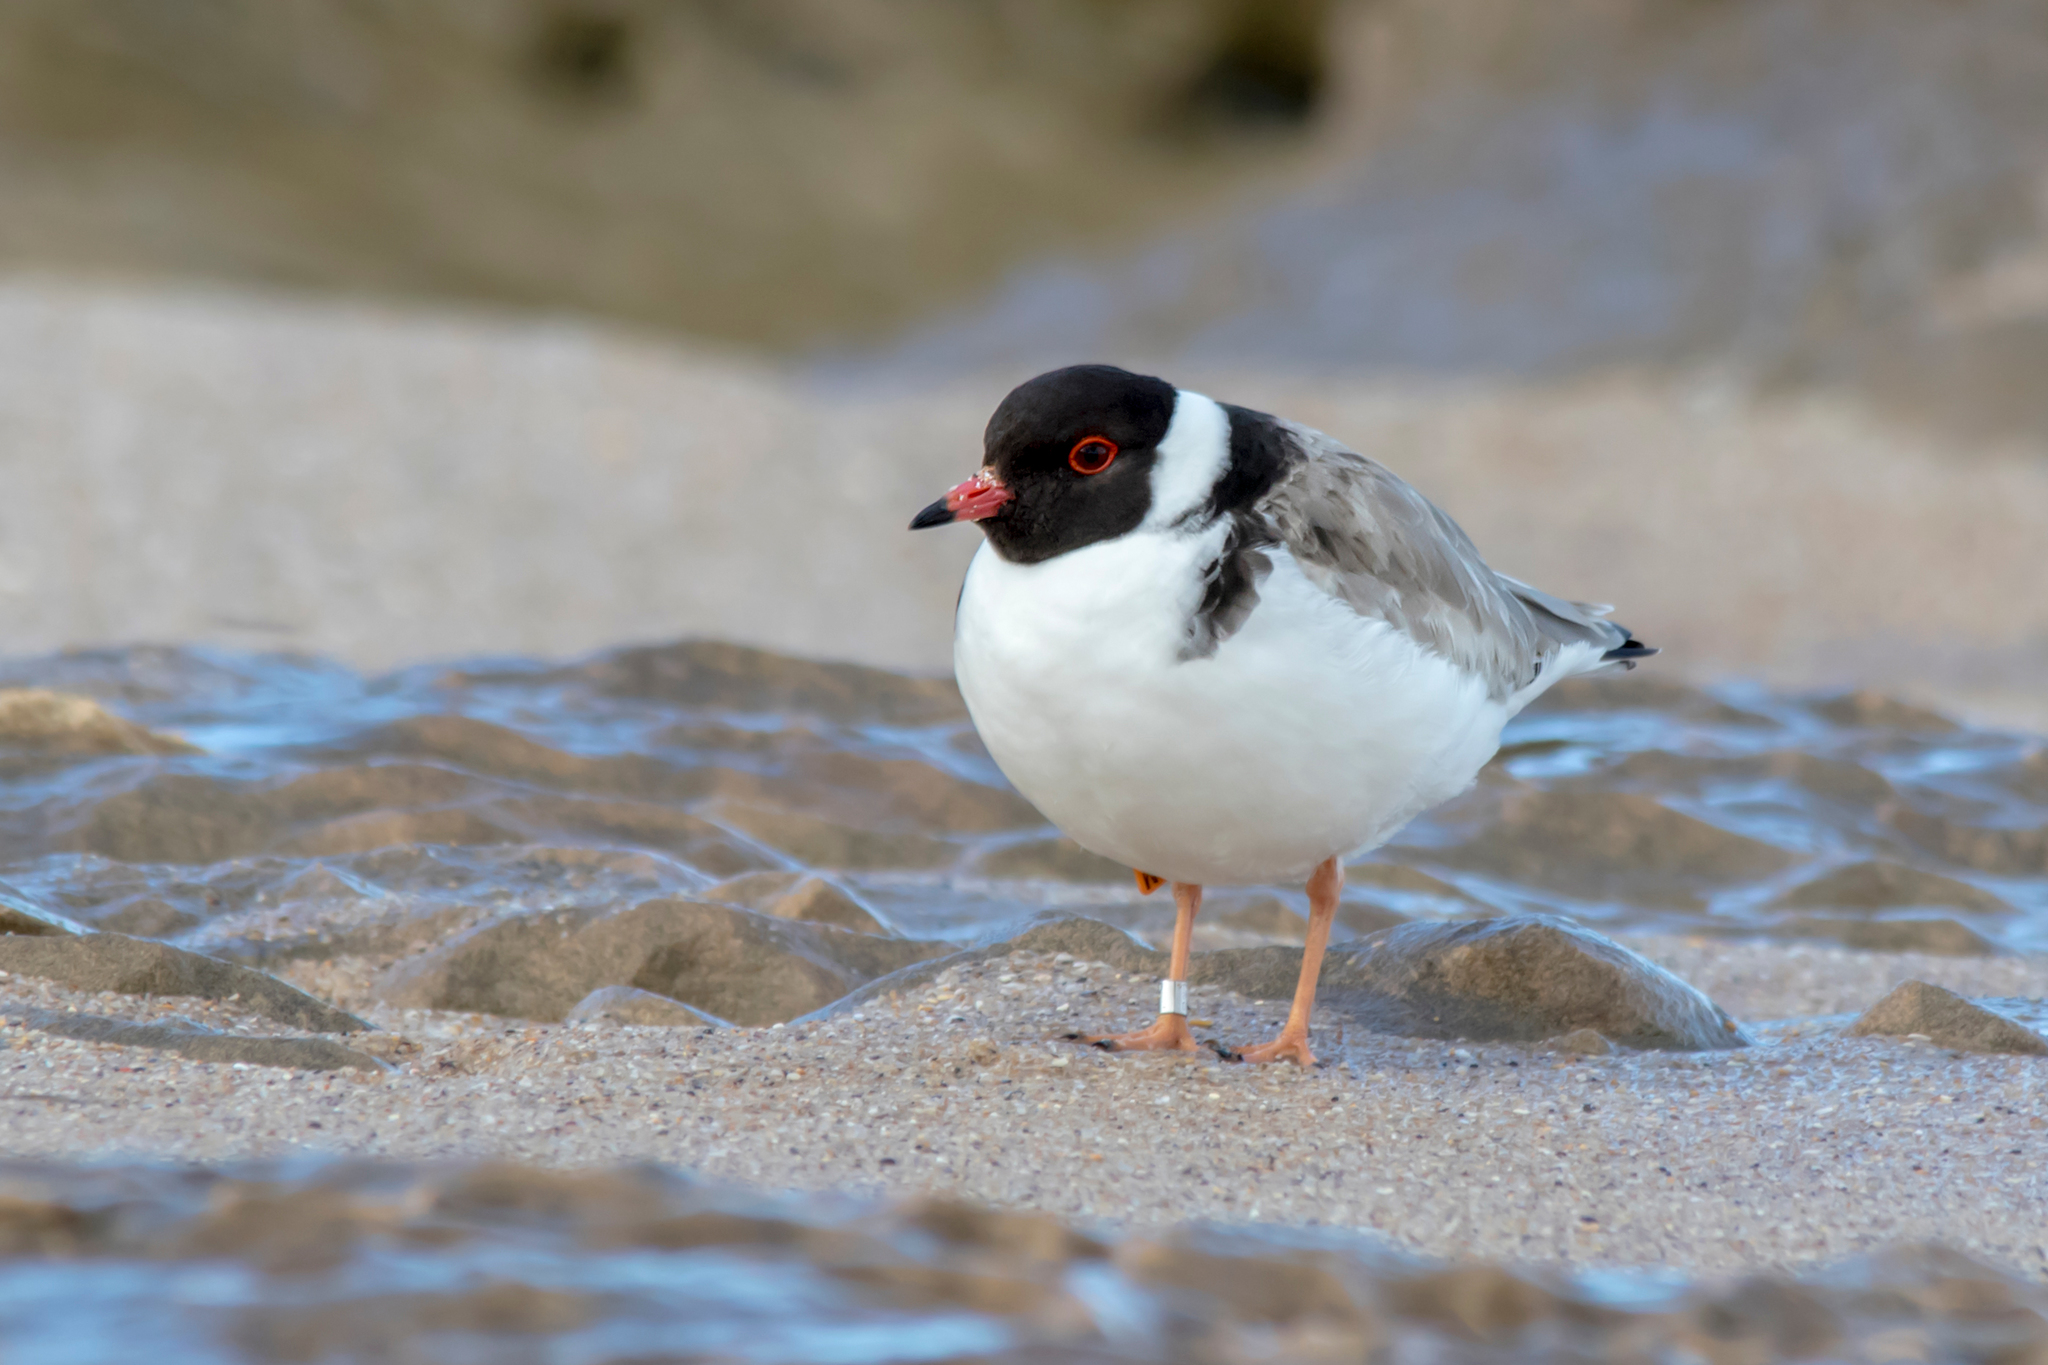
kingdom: Animalia
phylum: Chordata
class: Aves
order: Charadriiformes
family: Charadriidae
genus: Thinornis
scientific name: Thinornis cucullatus
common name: Hooded dotterel
